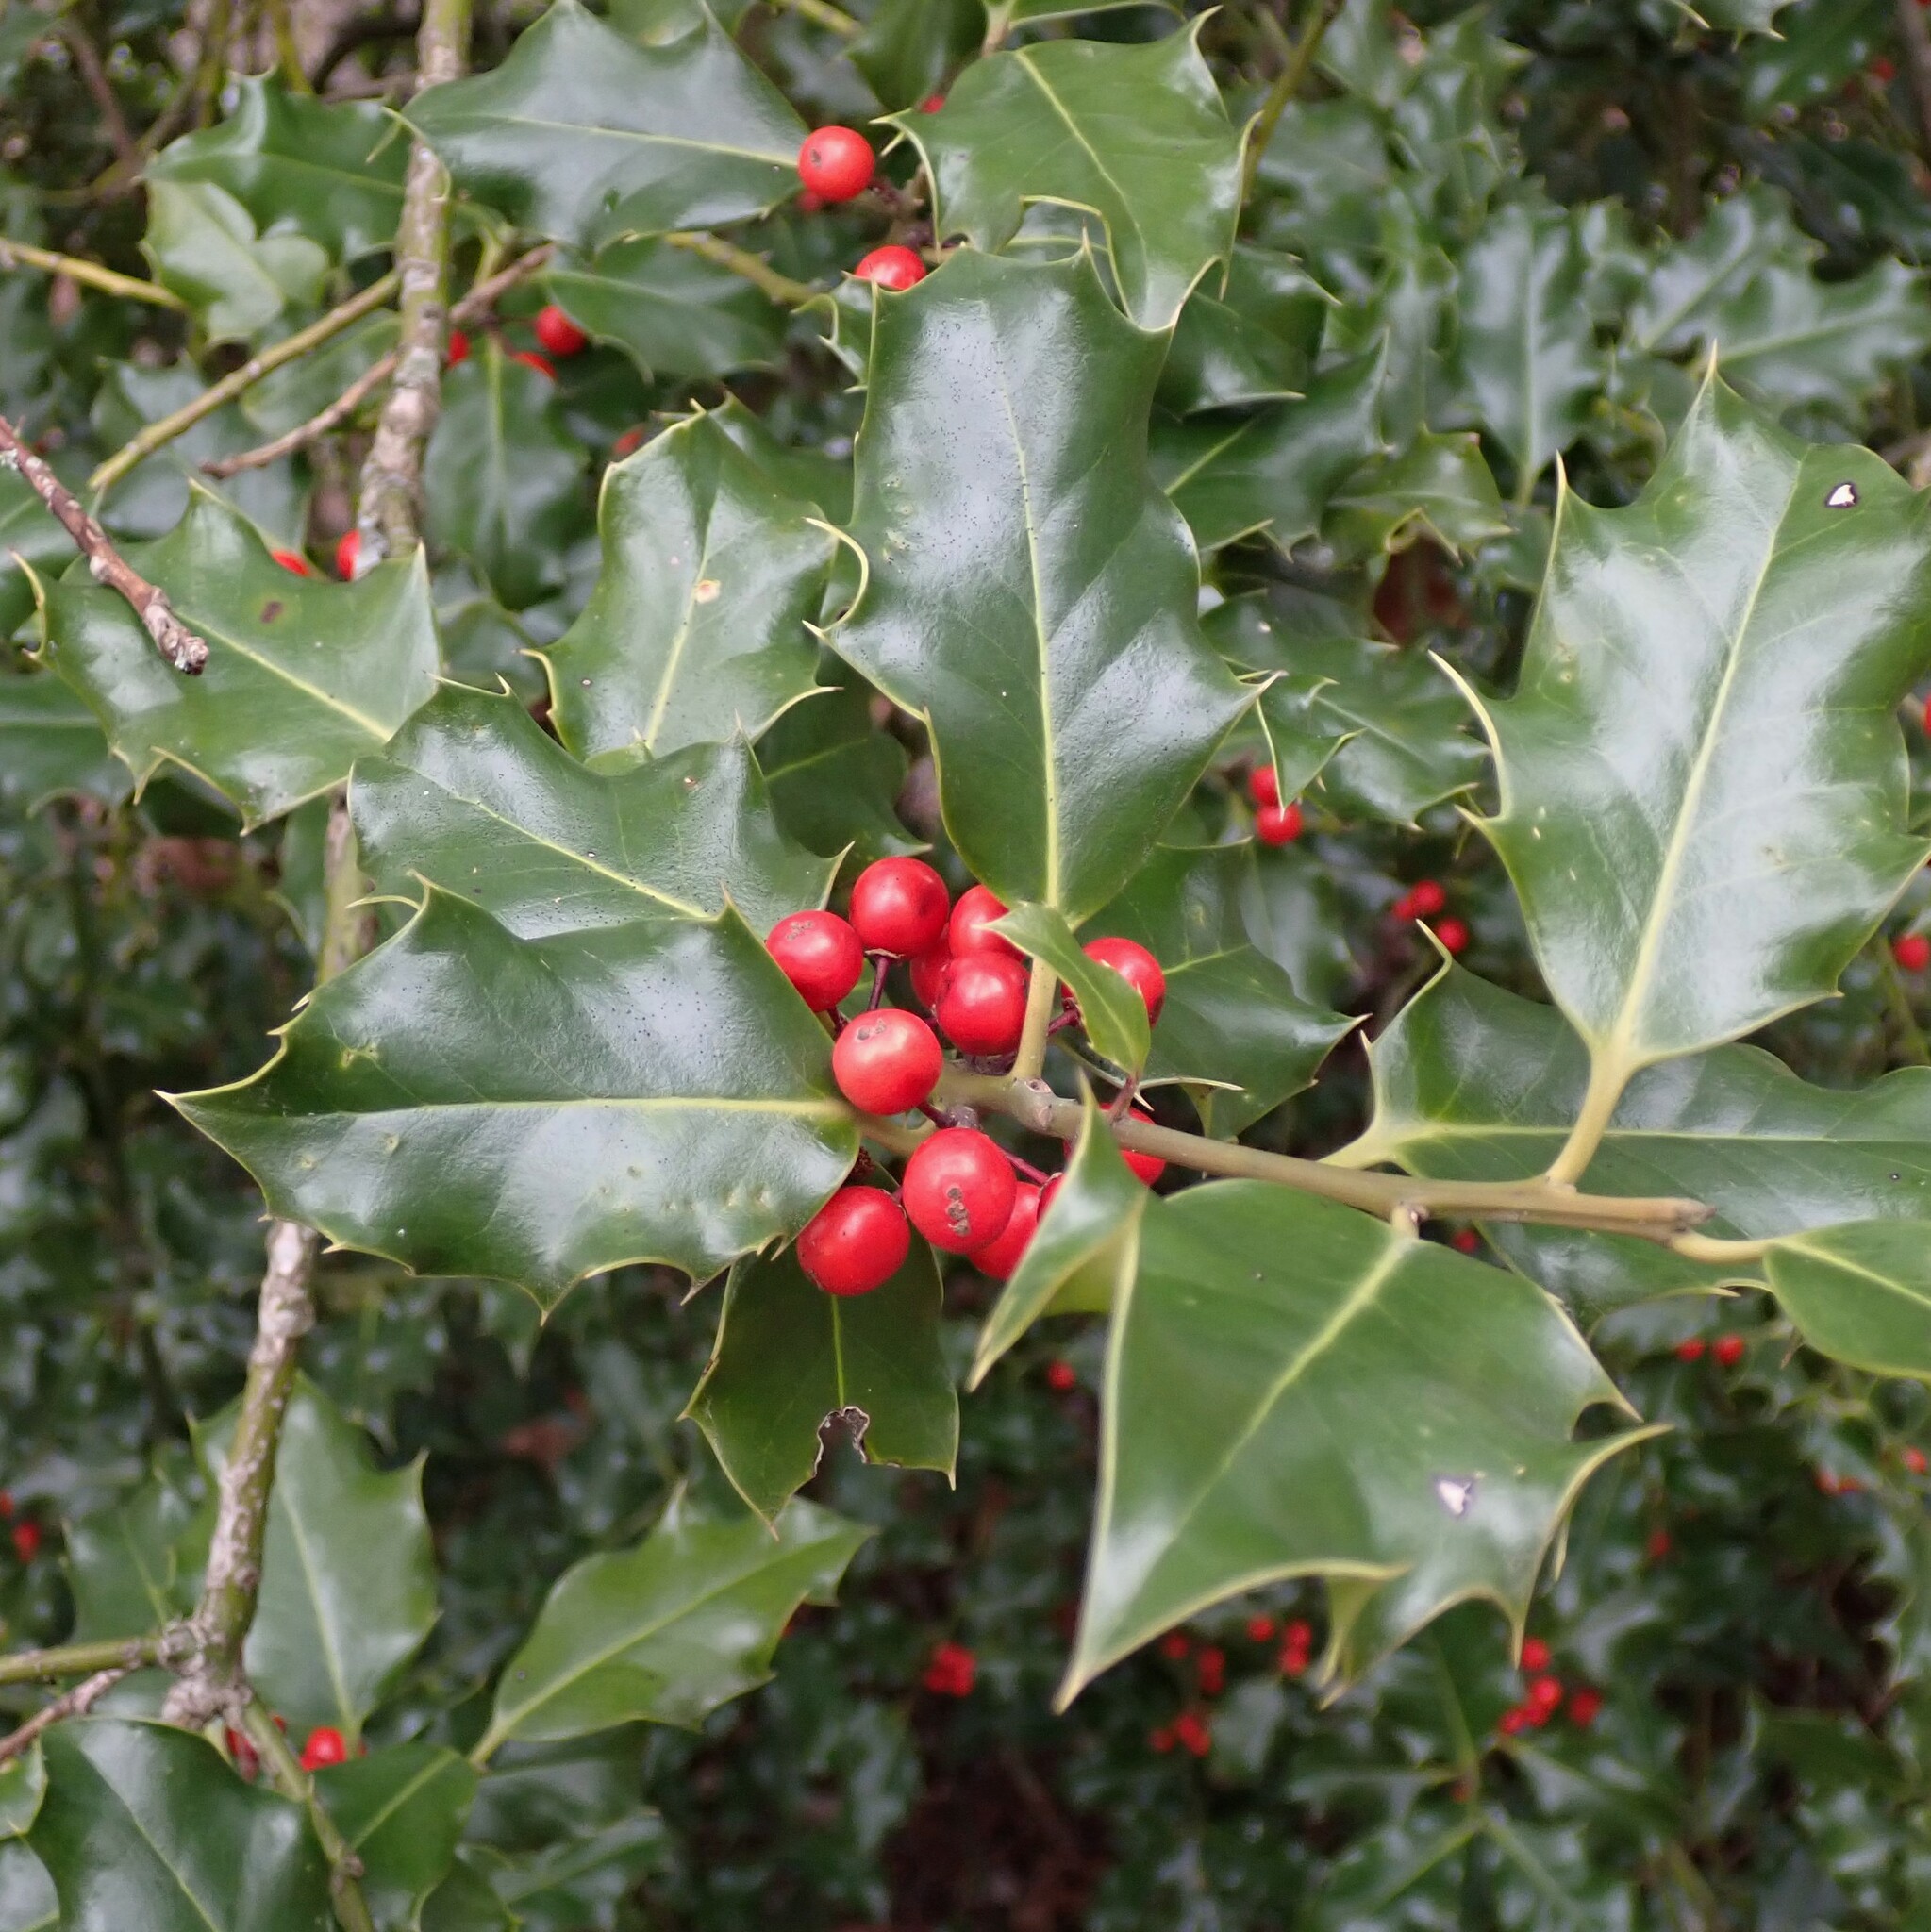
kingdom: Plantae
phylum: Tracheophyta
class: Magnoliopsida
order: Aquifoliales
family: Aquifoliaceae
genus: Ilex
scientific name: Ilex aquifolium
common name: English holly
